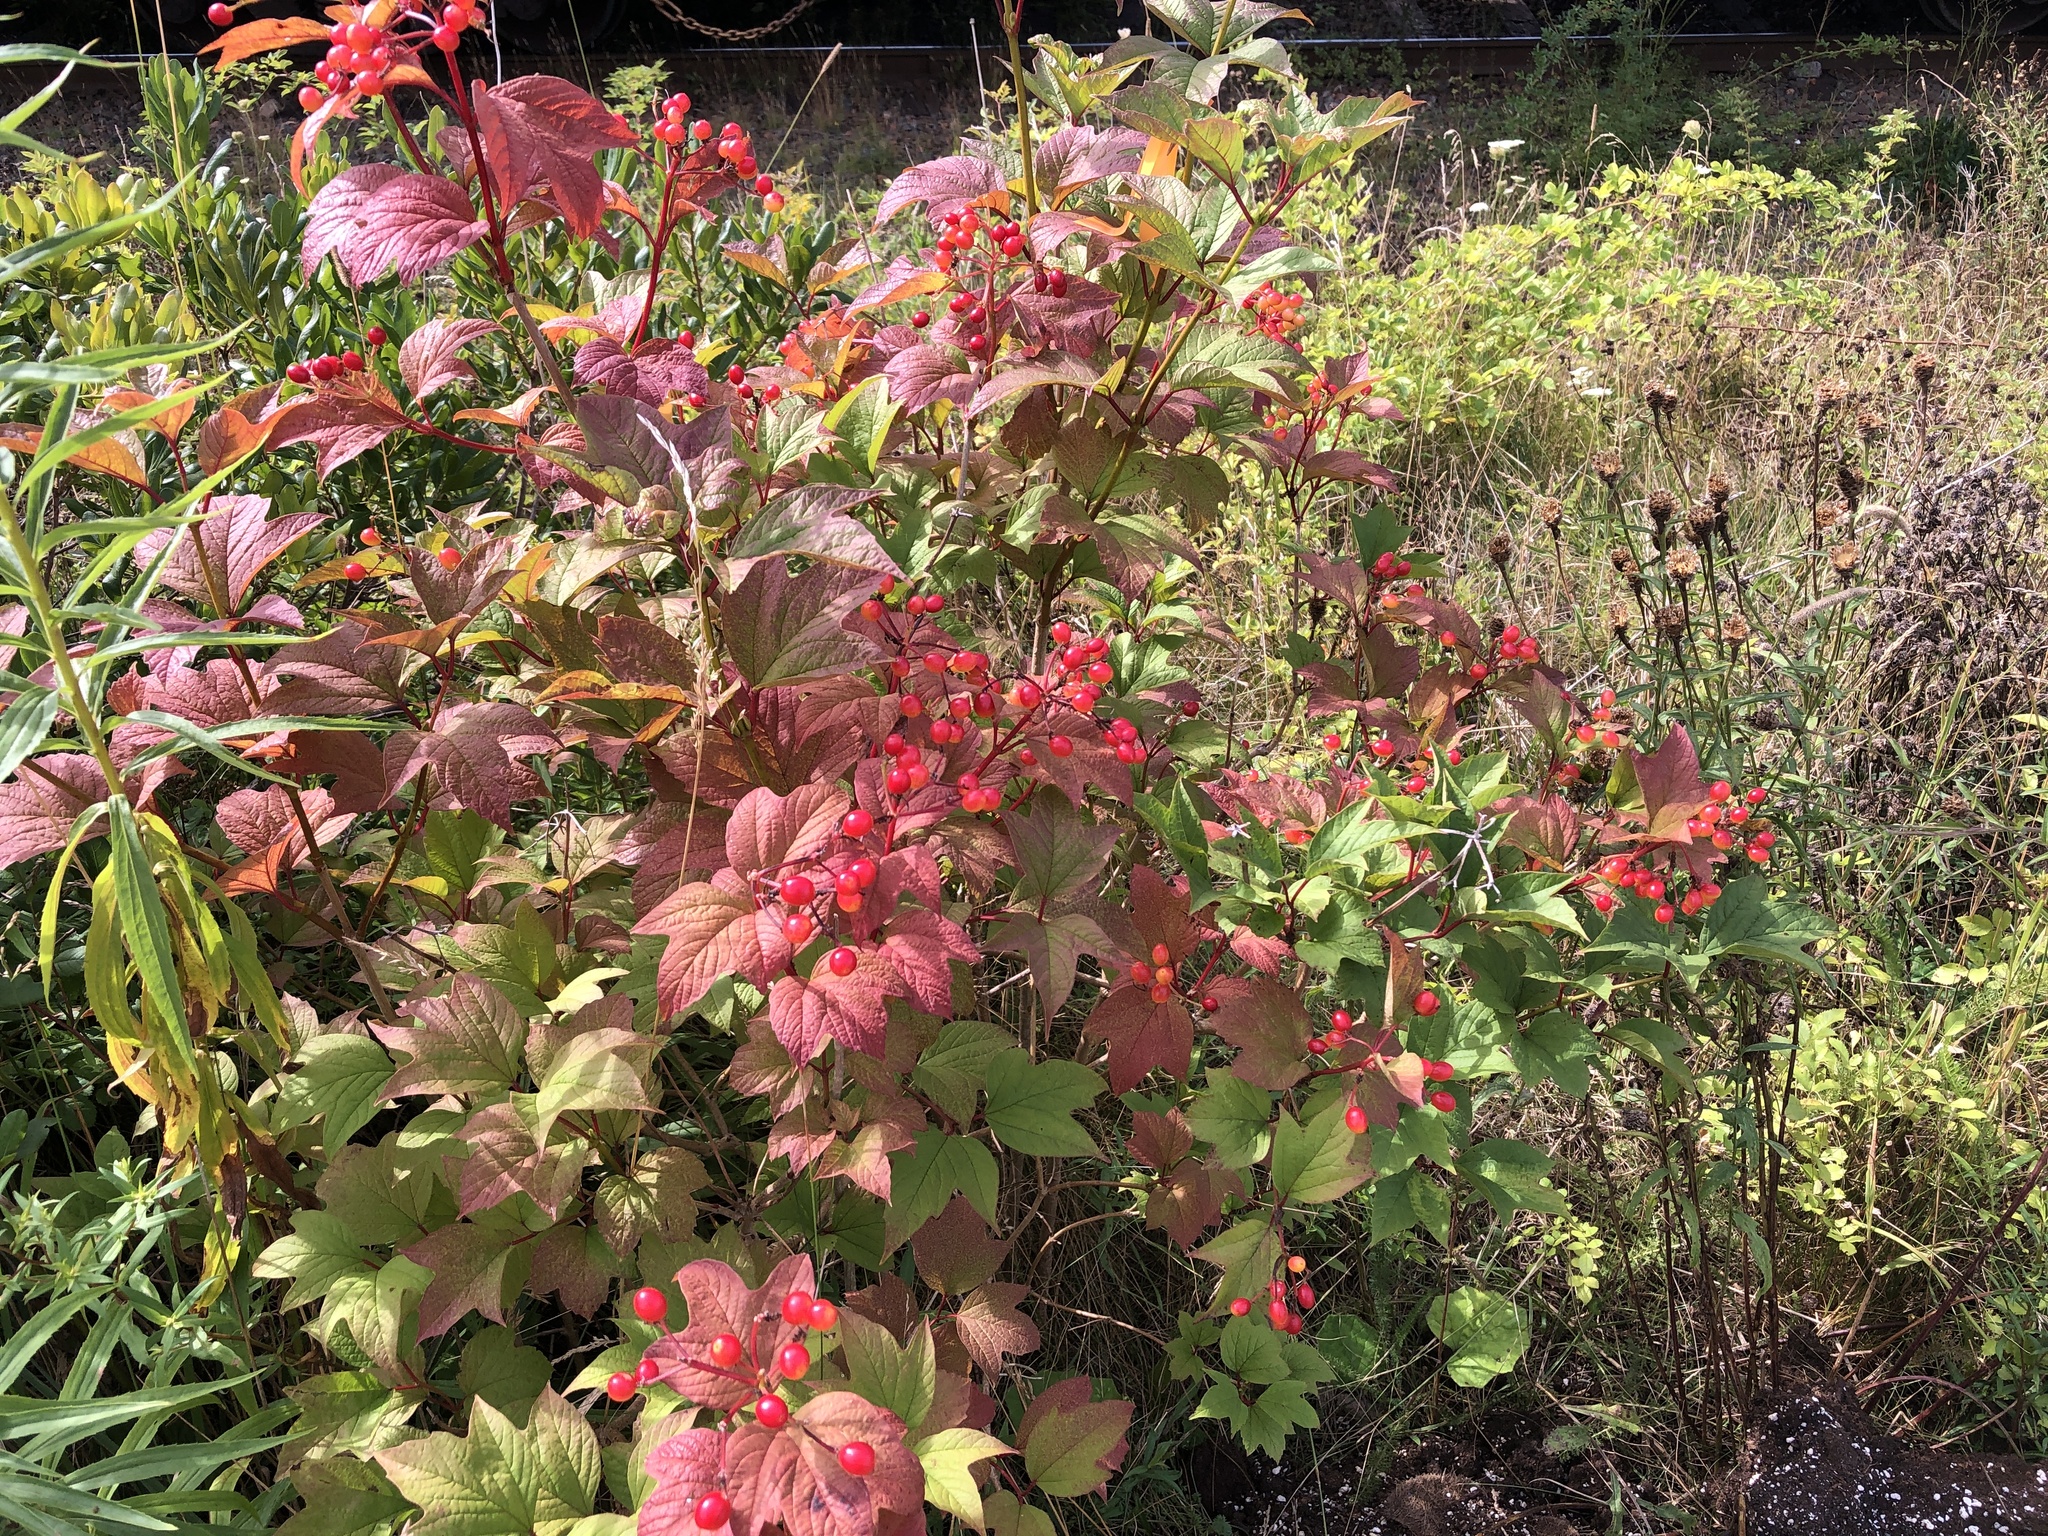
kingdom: Plantae
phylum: Tracheophyta
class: Magnoliopsida
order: Dipsacales
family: Viburnaceae
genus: Viburnum
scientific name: Viburnum opulus
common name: Guelder-rose
